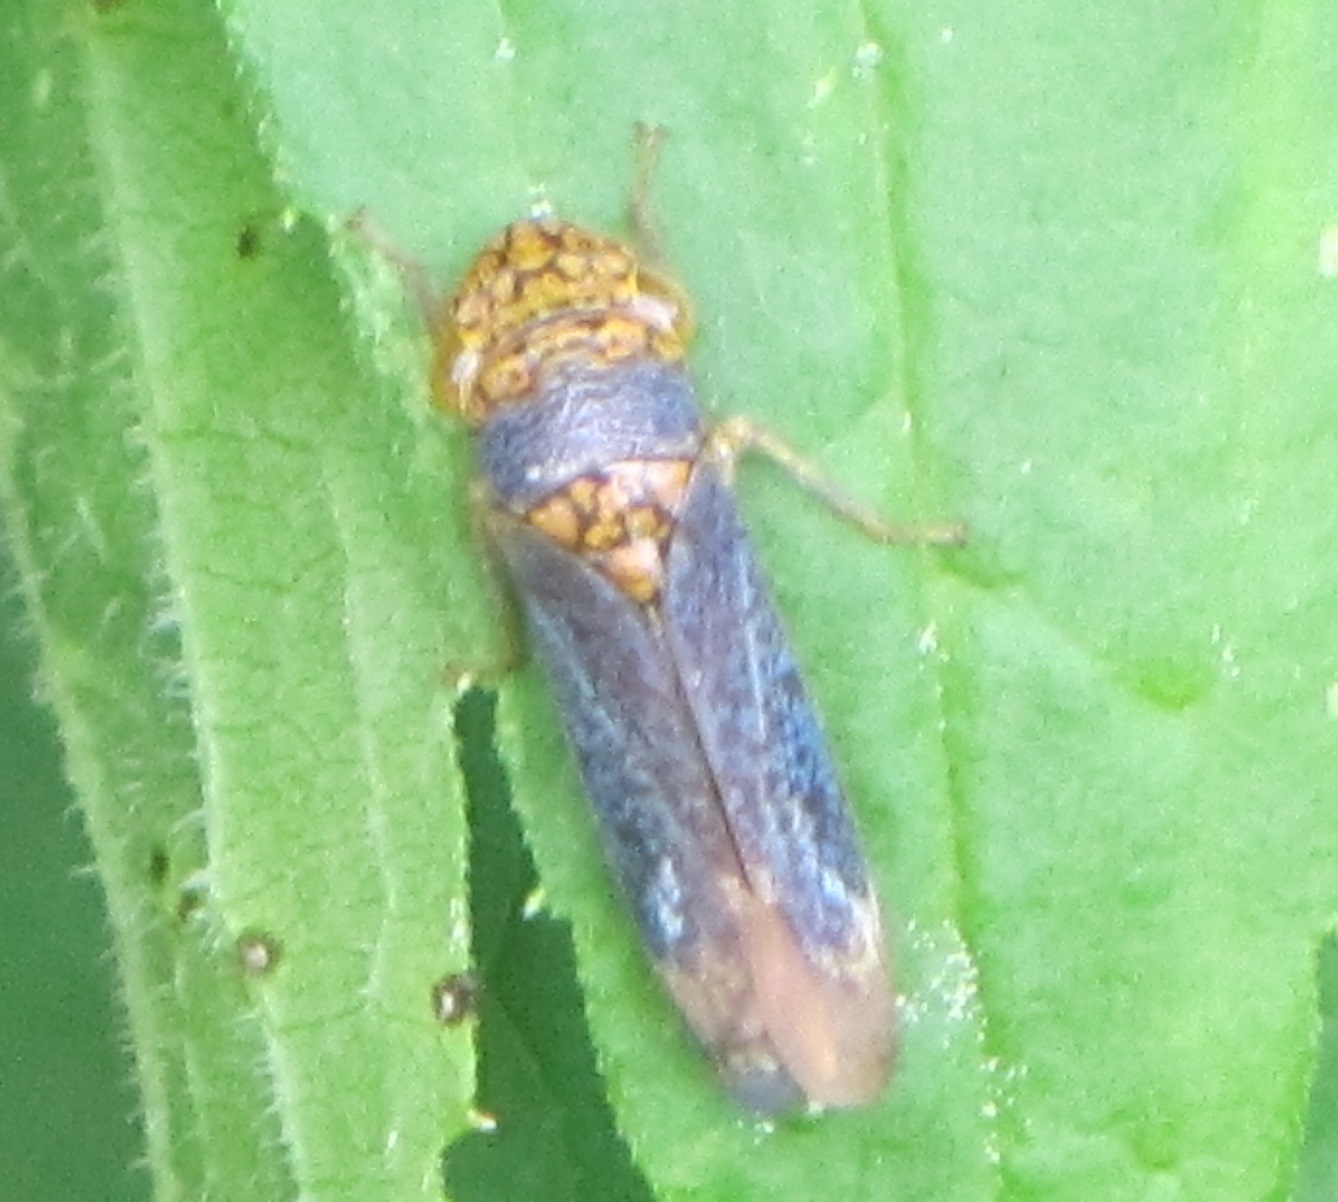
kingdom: Animalia
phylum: Arthropoda
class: Insecta
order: Hemiptera
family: Cicadellidae
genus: Oncometopia
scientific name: Oncometopia orbona
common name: Broad-headed sharpshooter
